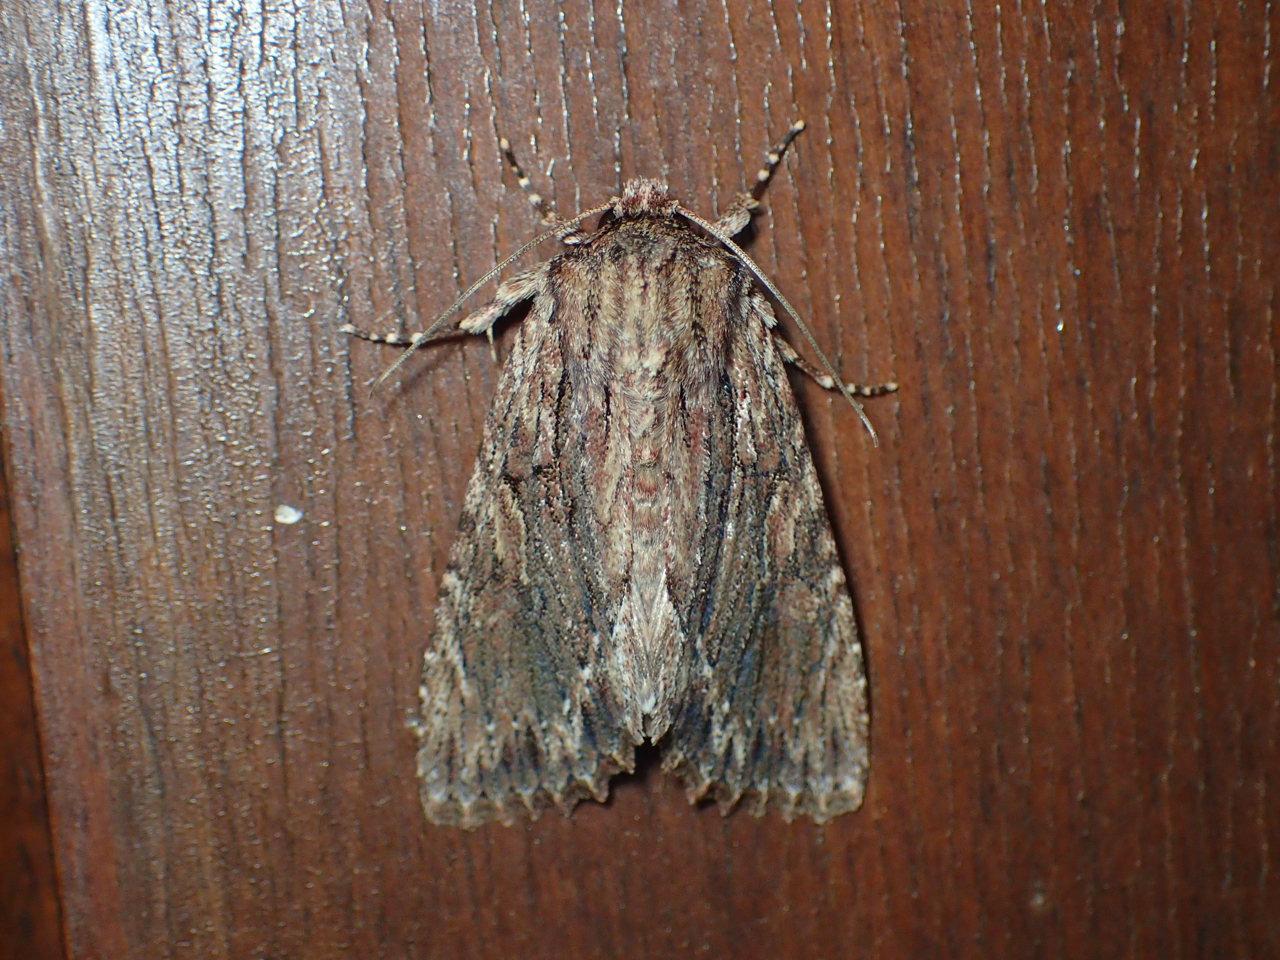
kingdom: Animalia
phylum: Arthropoda
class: Insecta
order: Lepidoptera
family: Noctuidae
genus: Achatia
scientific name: Achatia confusa
